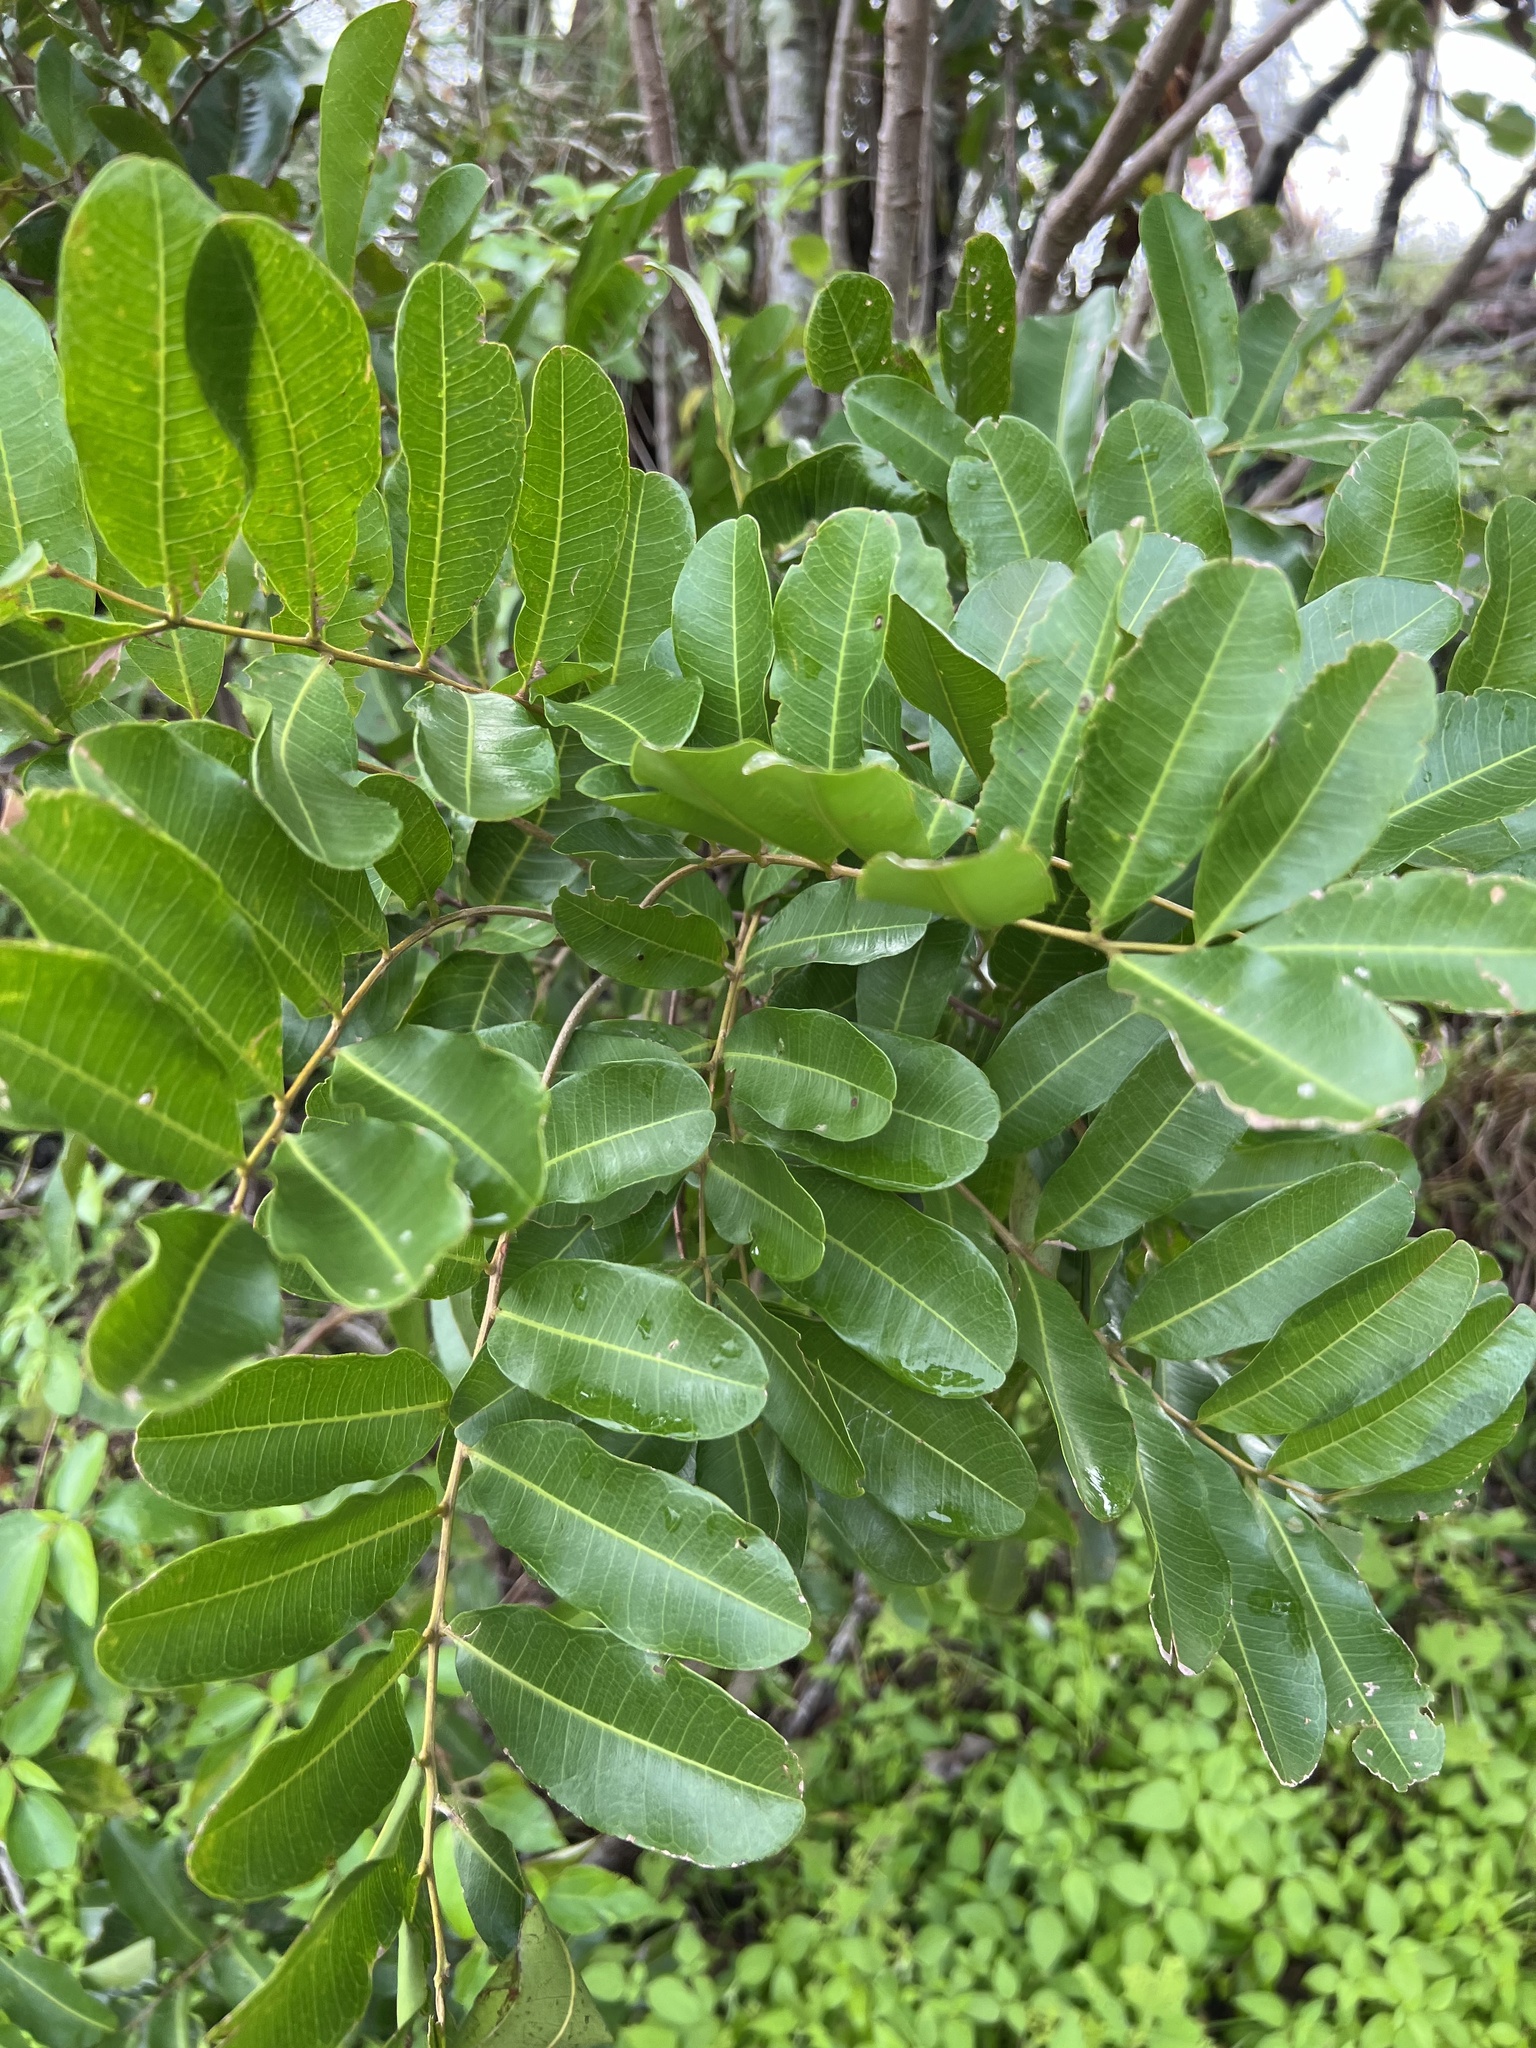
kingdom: Plantae
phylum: Tracheophyta
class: Magnoliopsida
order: Sapindales
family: Sapindaceae
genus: Cupaniopsis
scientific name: Cupaniopsis anacardioides
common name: Carrotwood
